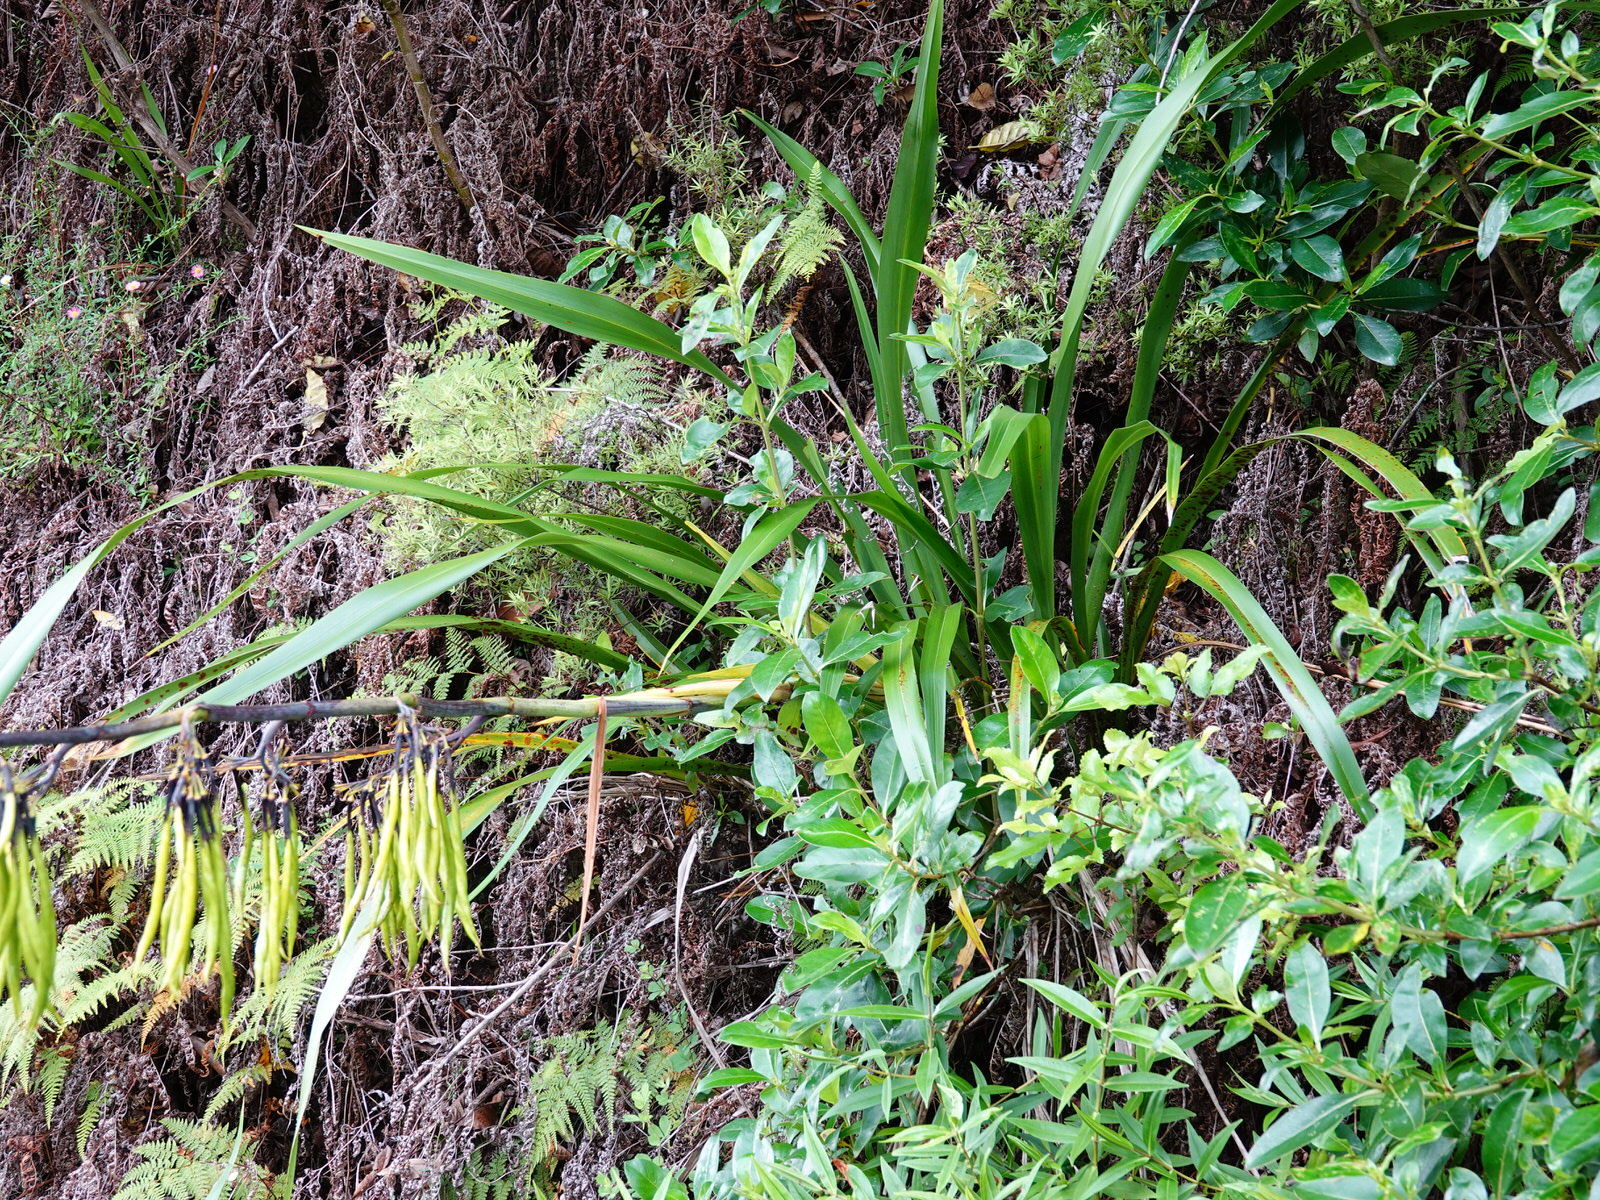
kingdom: Plantae
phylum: Tracheophyta
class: Liliopsida
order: Asparagales
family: Asphodelaceae
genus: Phormium
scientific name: Phormium colensoi
